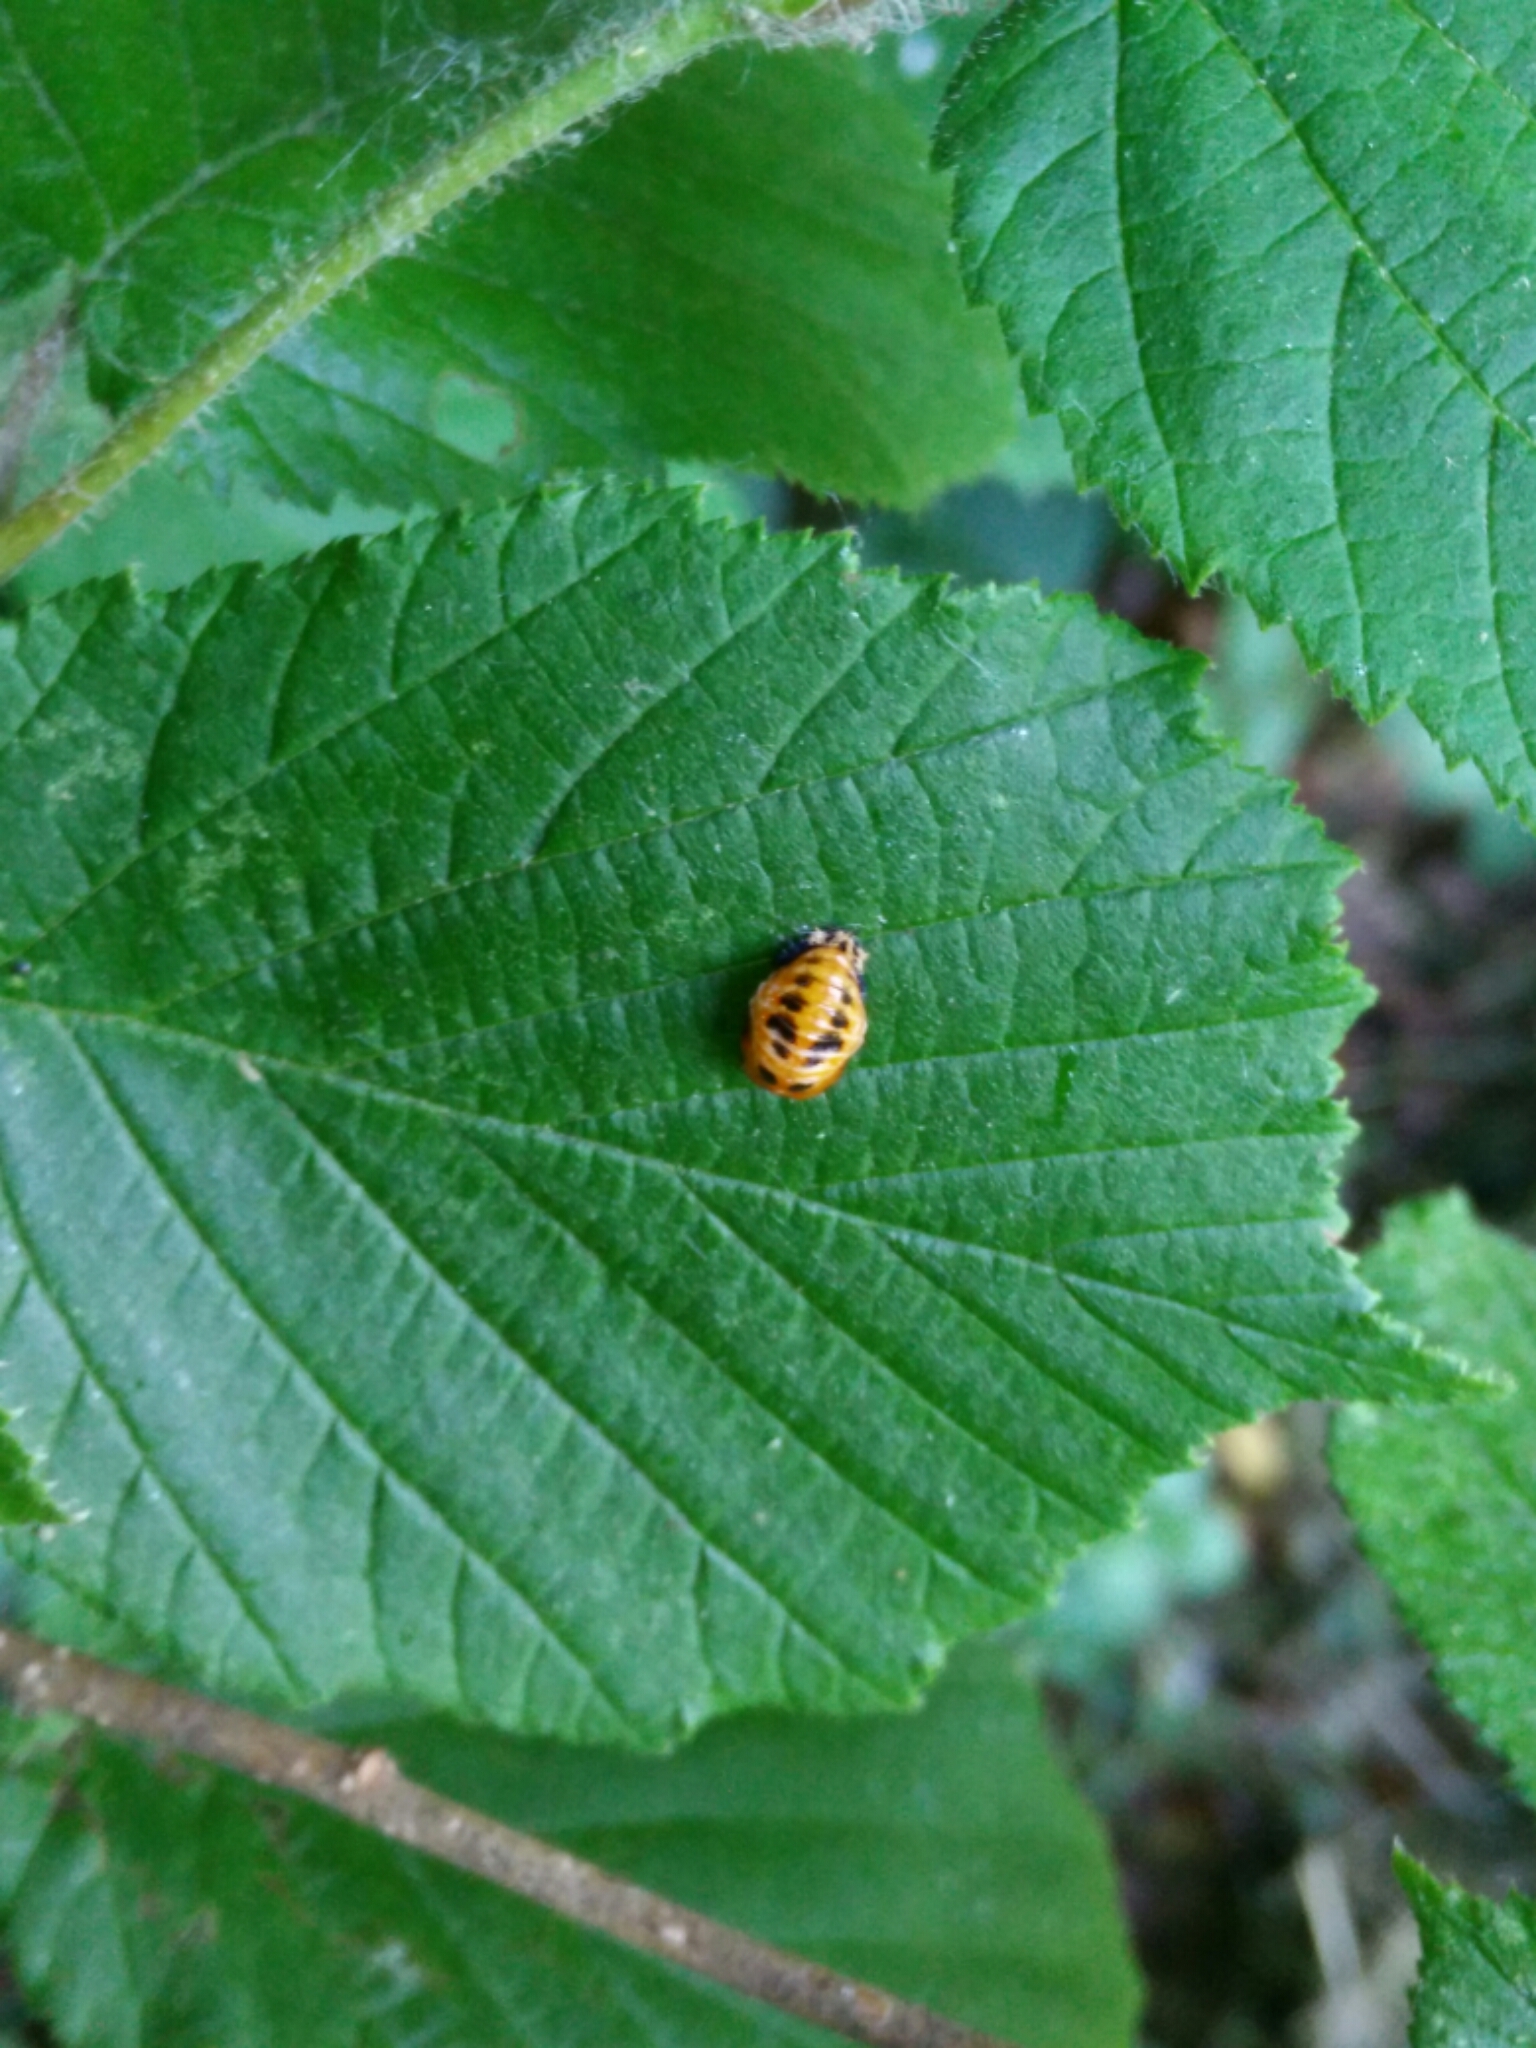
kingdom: Animalia
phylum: Arthropoda
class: Insecta
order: Coleoptera
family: Coccinellidae
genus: Harmonia
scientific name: Harmonia axyridis
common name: Harlequin ladybird
